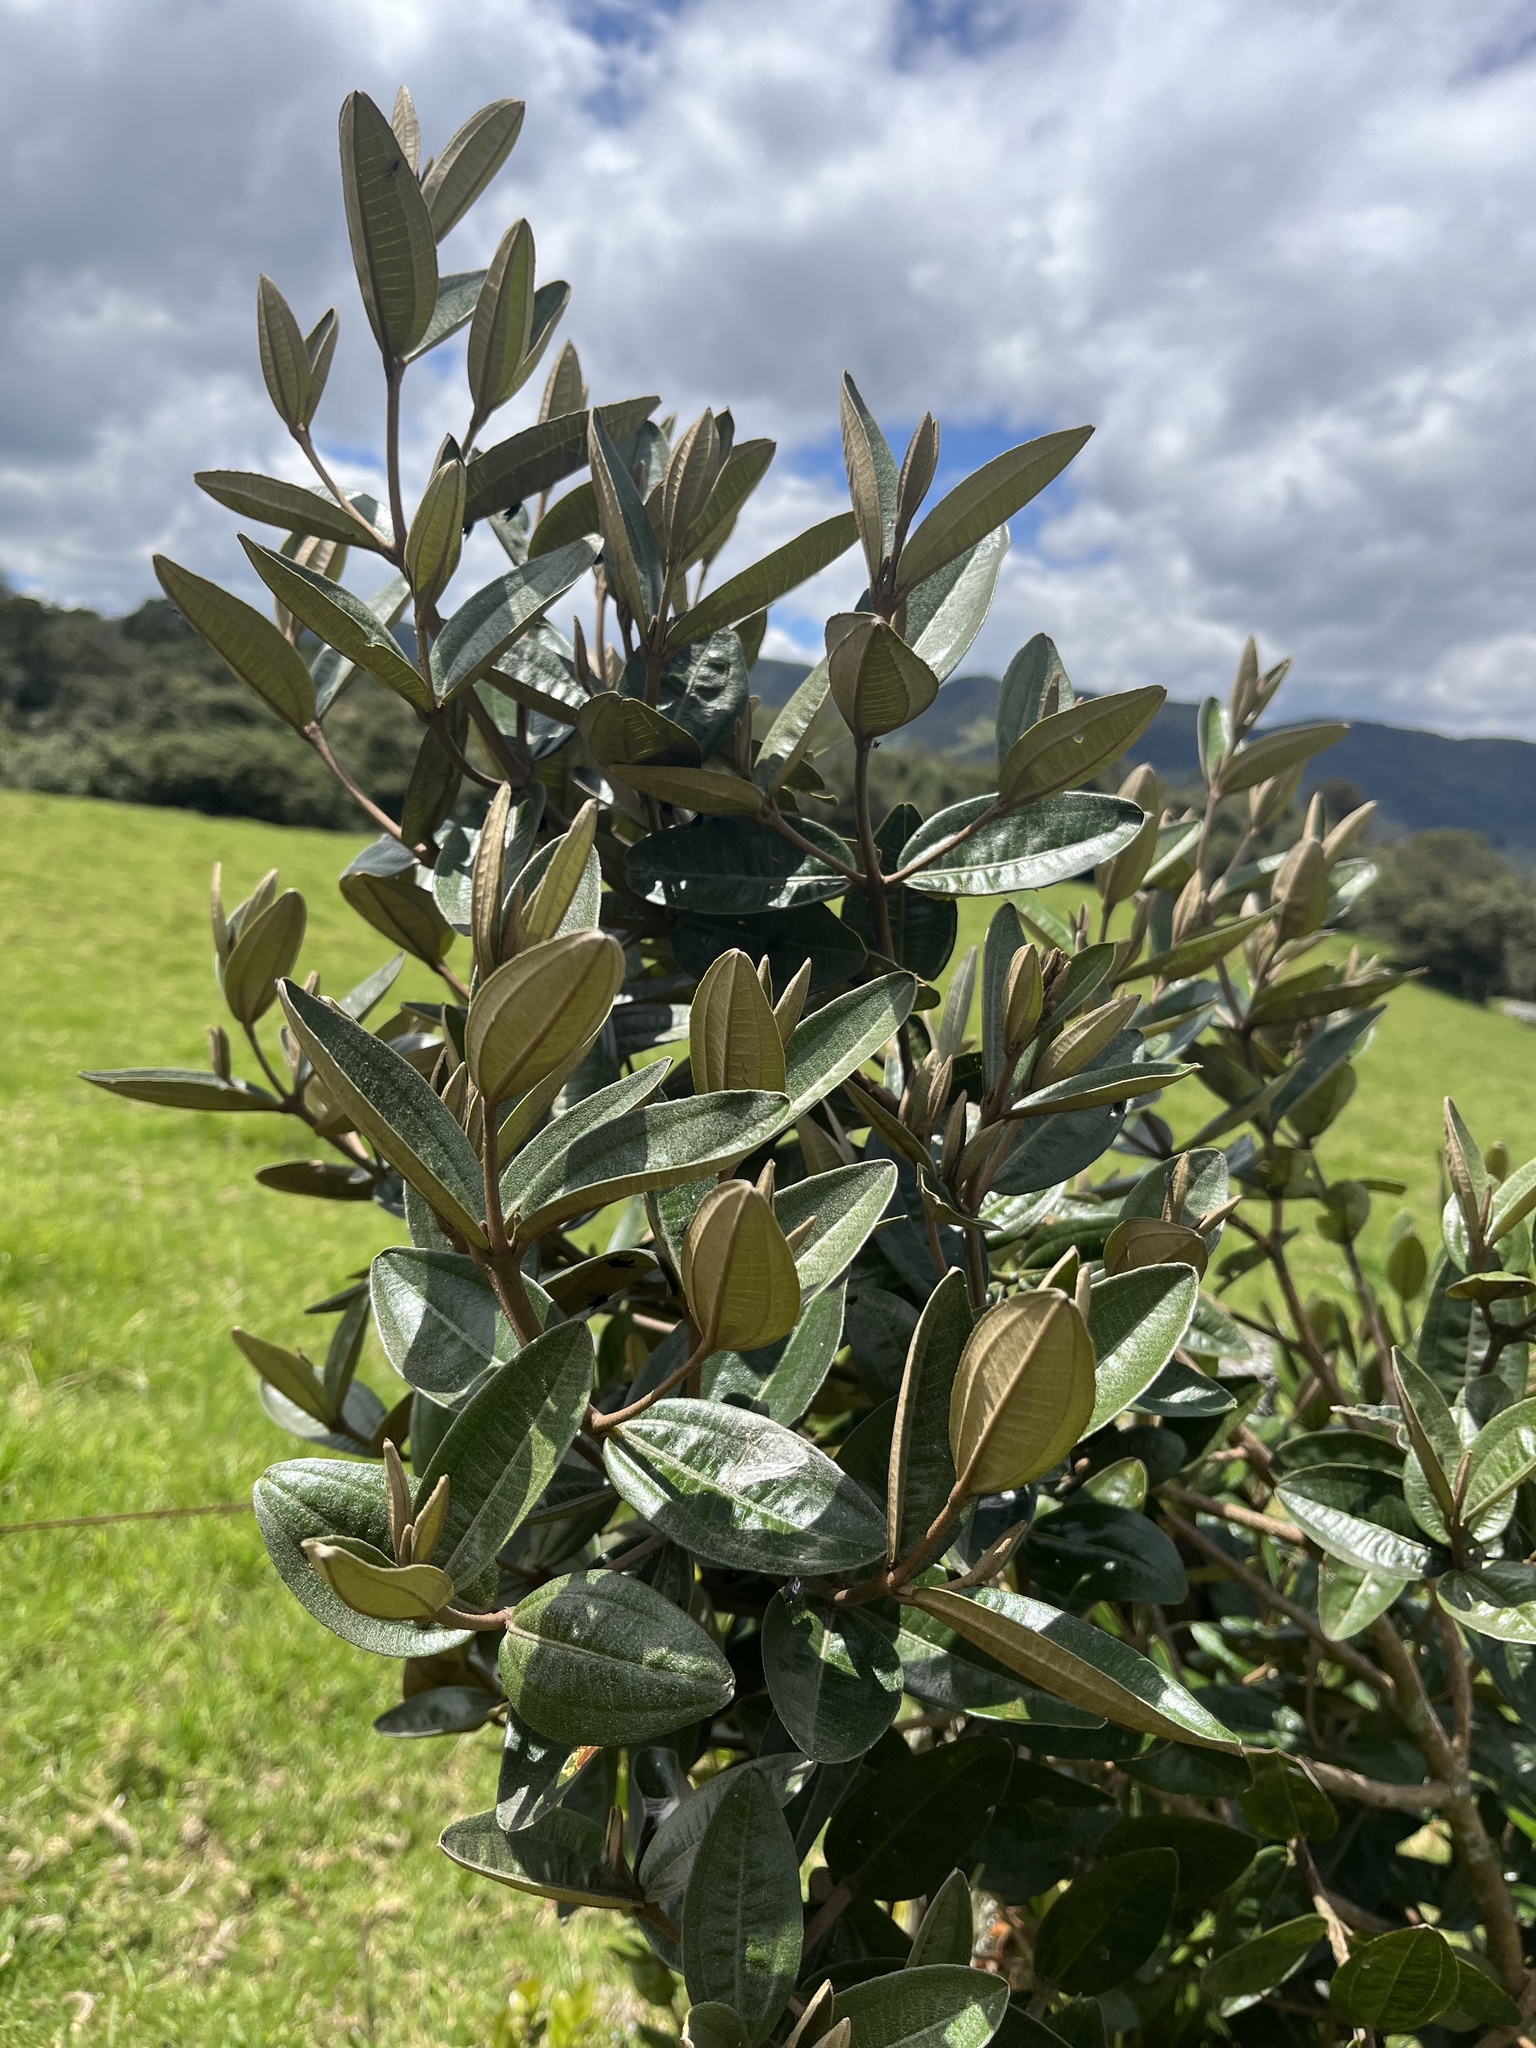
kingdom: Plantae
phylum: Tracheophyta
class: Magnoliopsida
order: Myrtales
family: Melastomataceae
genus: Miconia
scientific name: Miconia squamulosa
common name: Squamulose maya
